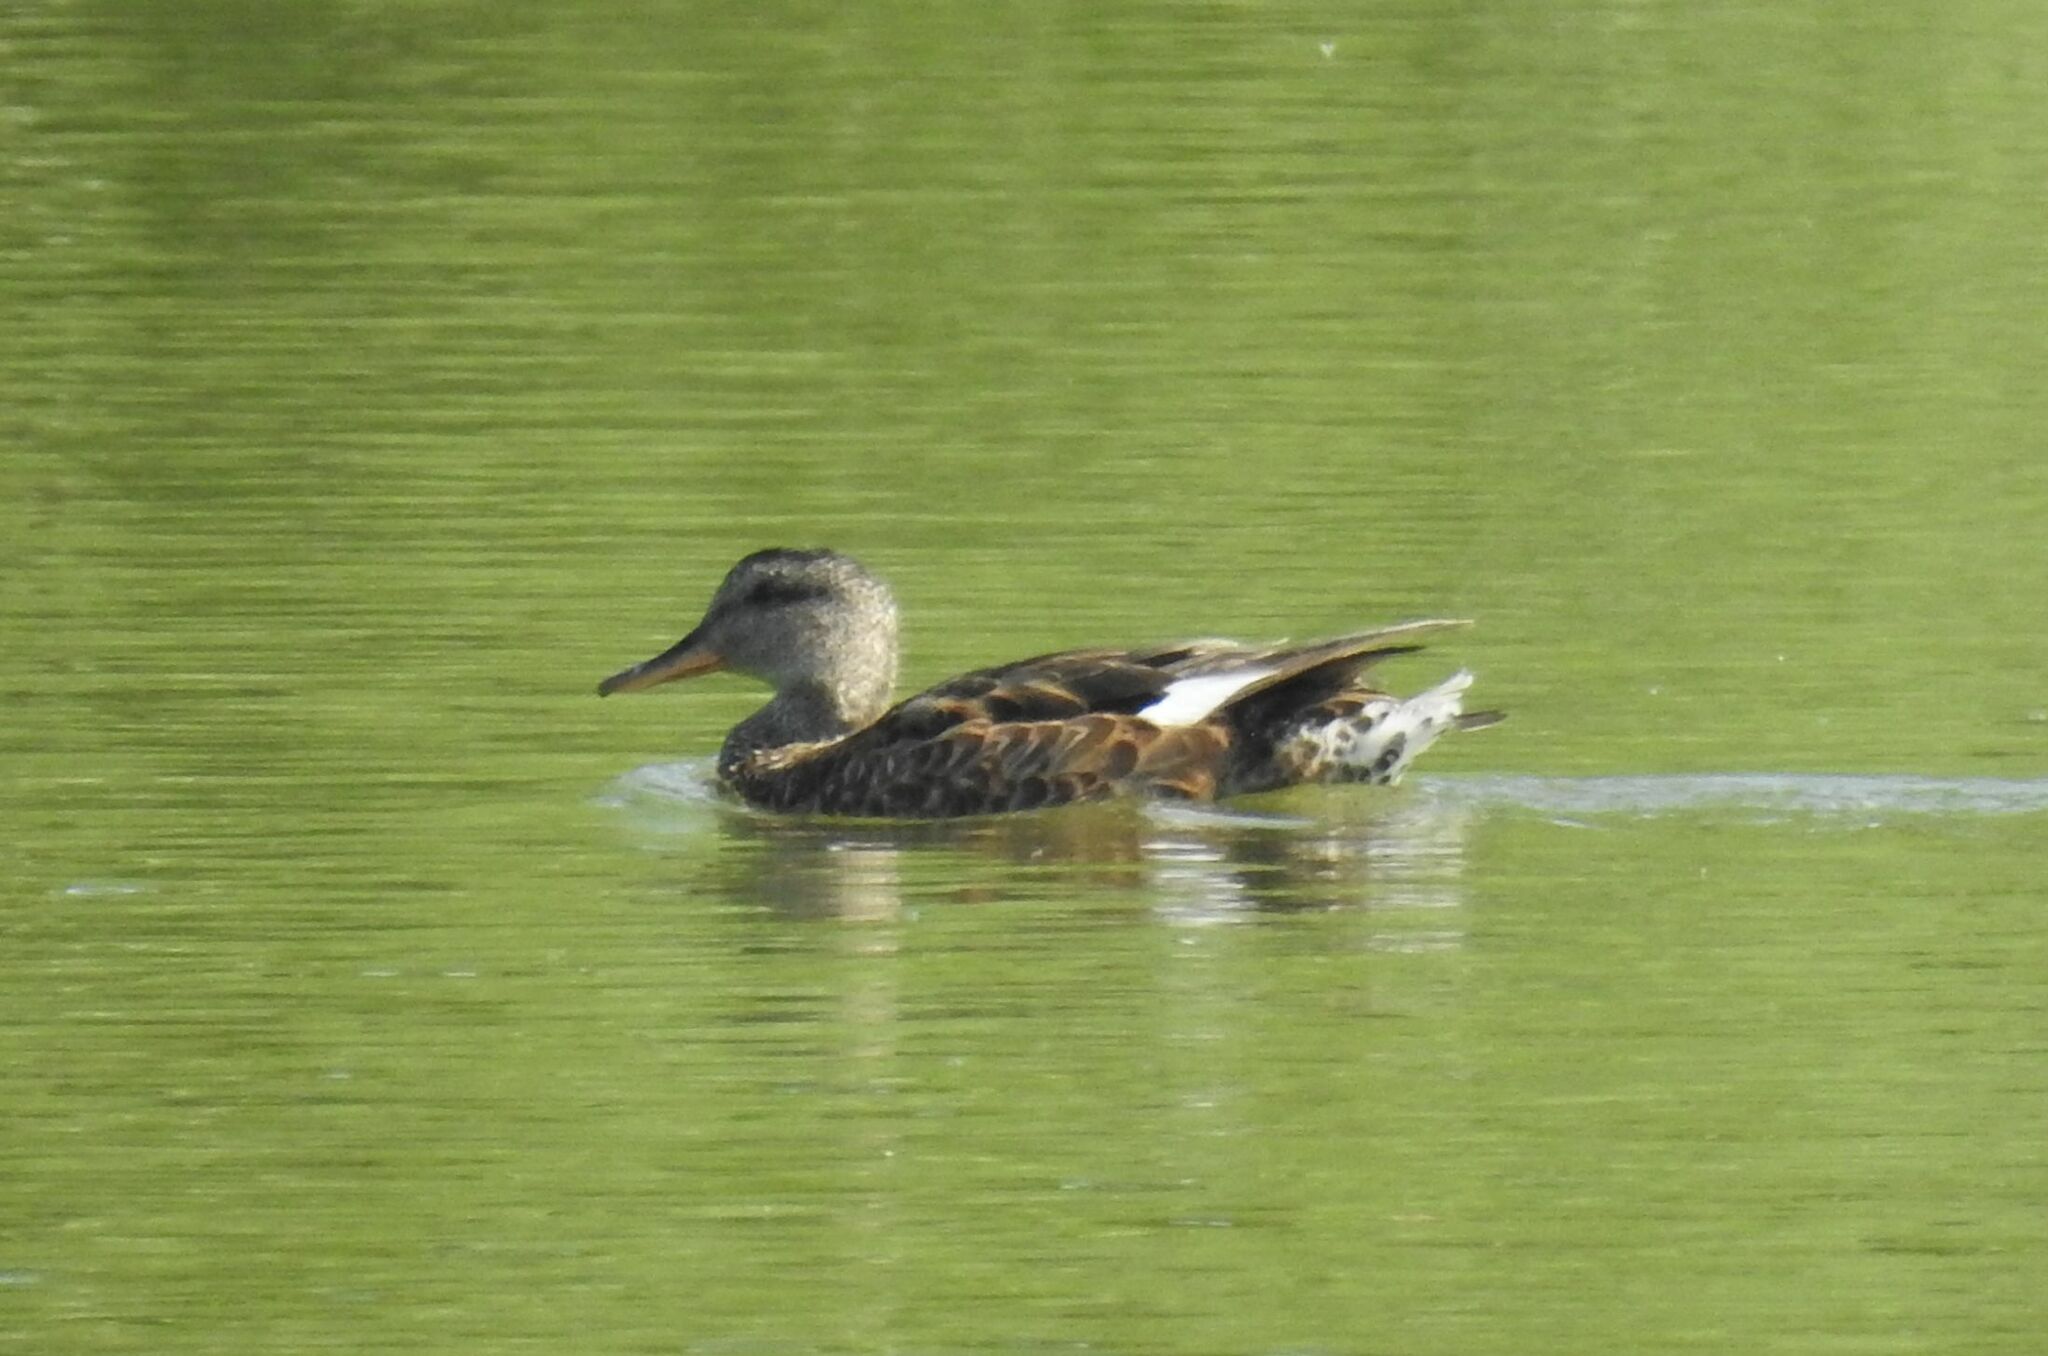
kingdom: Animalia
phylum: Chordata
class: Aves
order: Anseriformes
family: Anatidae
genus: Mareca
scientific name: Mareca strepera
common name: Gadwall
